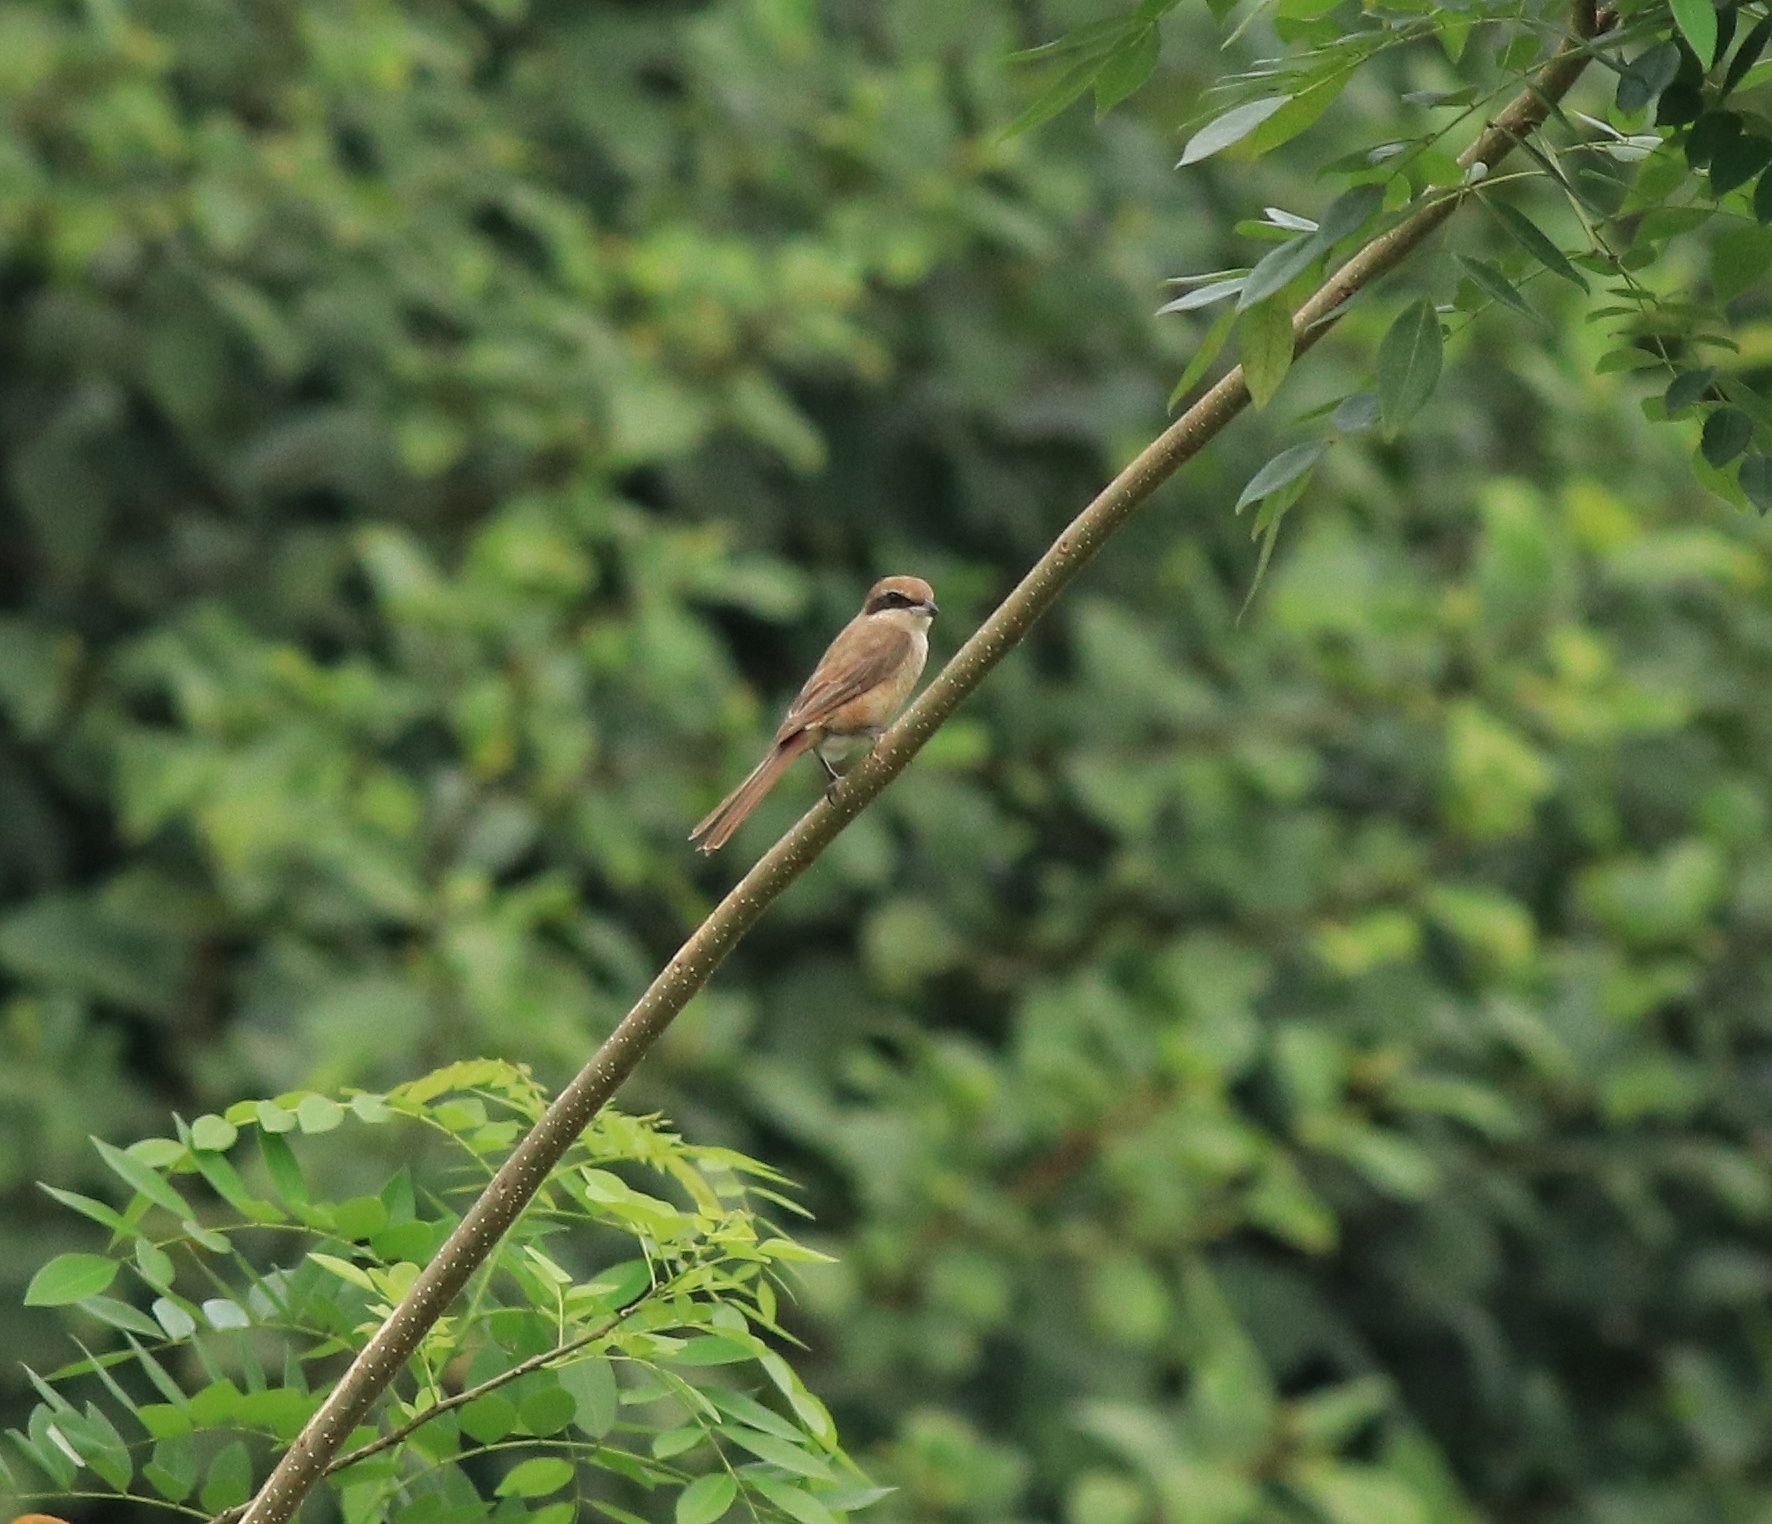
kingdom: Animalia
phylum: Chordata
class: Aves
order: Passeriformes
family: Laniidae
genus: Lanius
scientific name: Lanius cristatus
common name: Brown shrike
